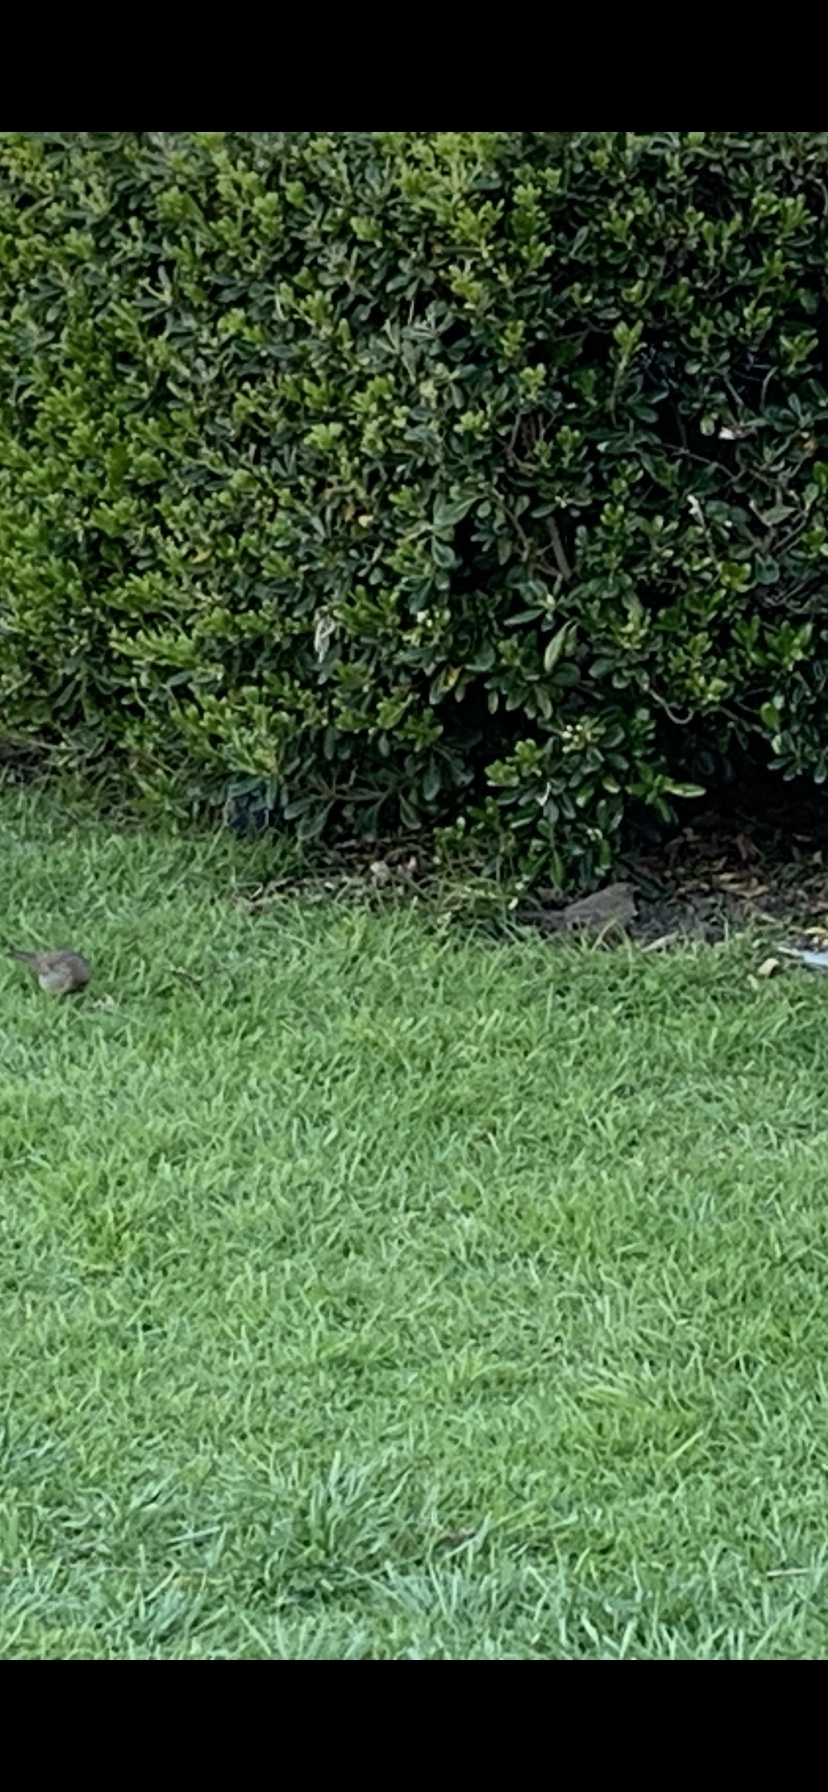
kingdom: Animalia
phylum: Chordata
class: Aves
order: Passeriformes
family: Passerellidae
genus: Melozone
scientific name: Melozone crissalis
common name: California towhee
